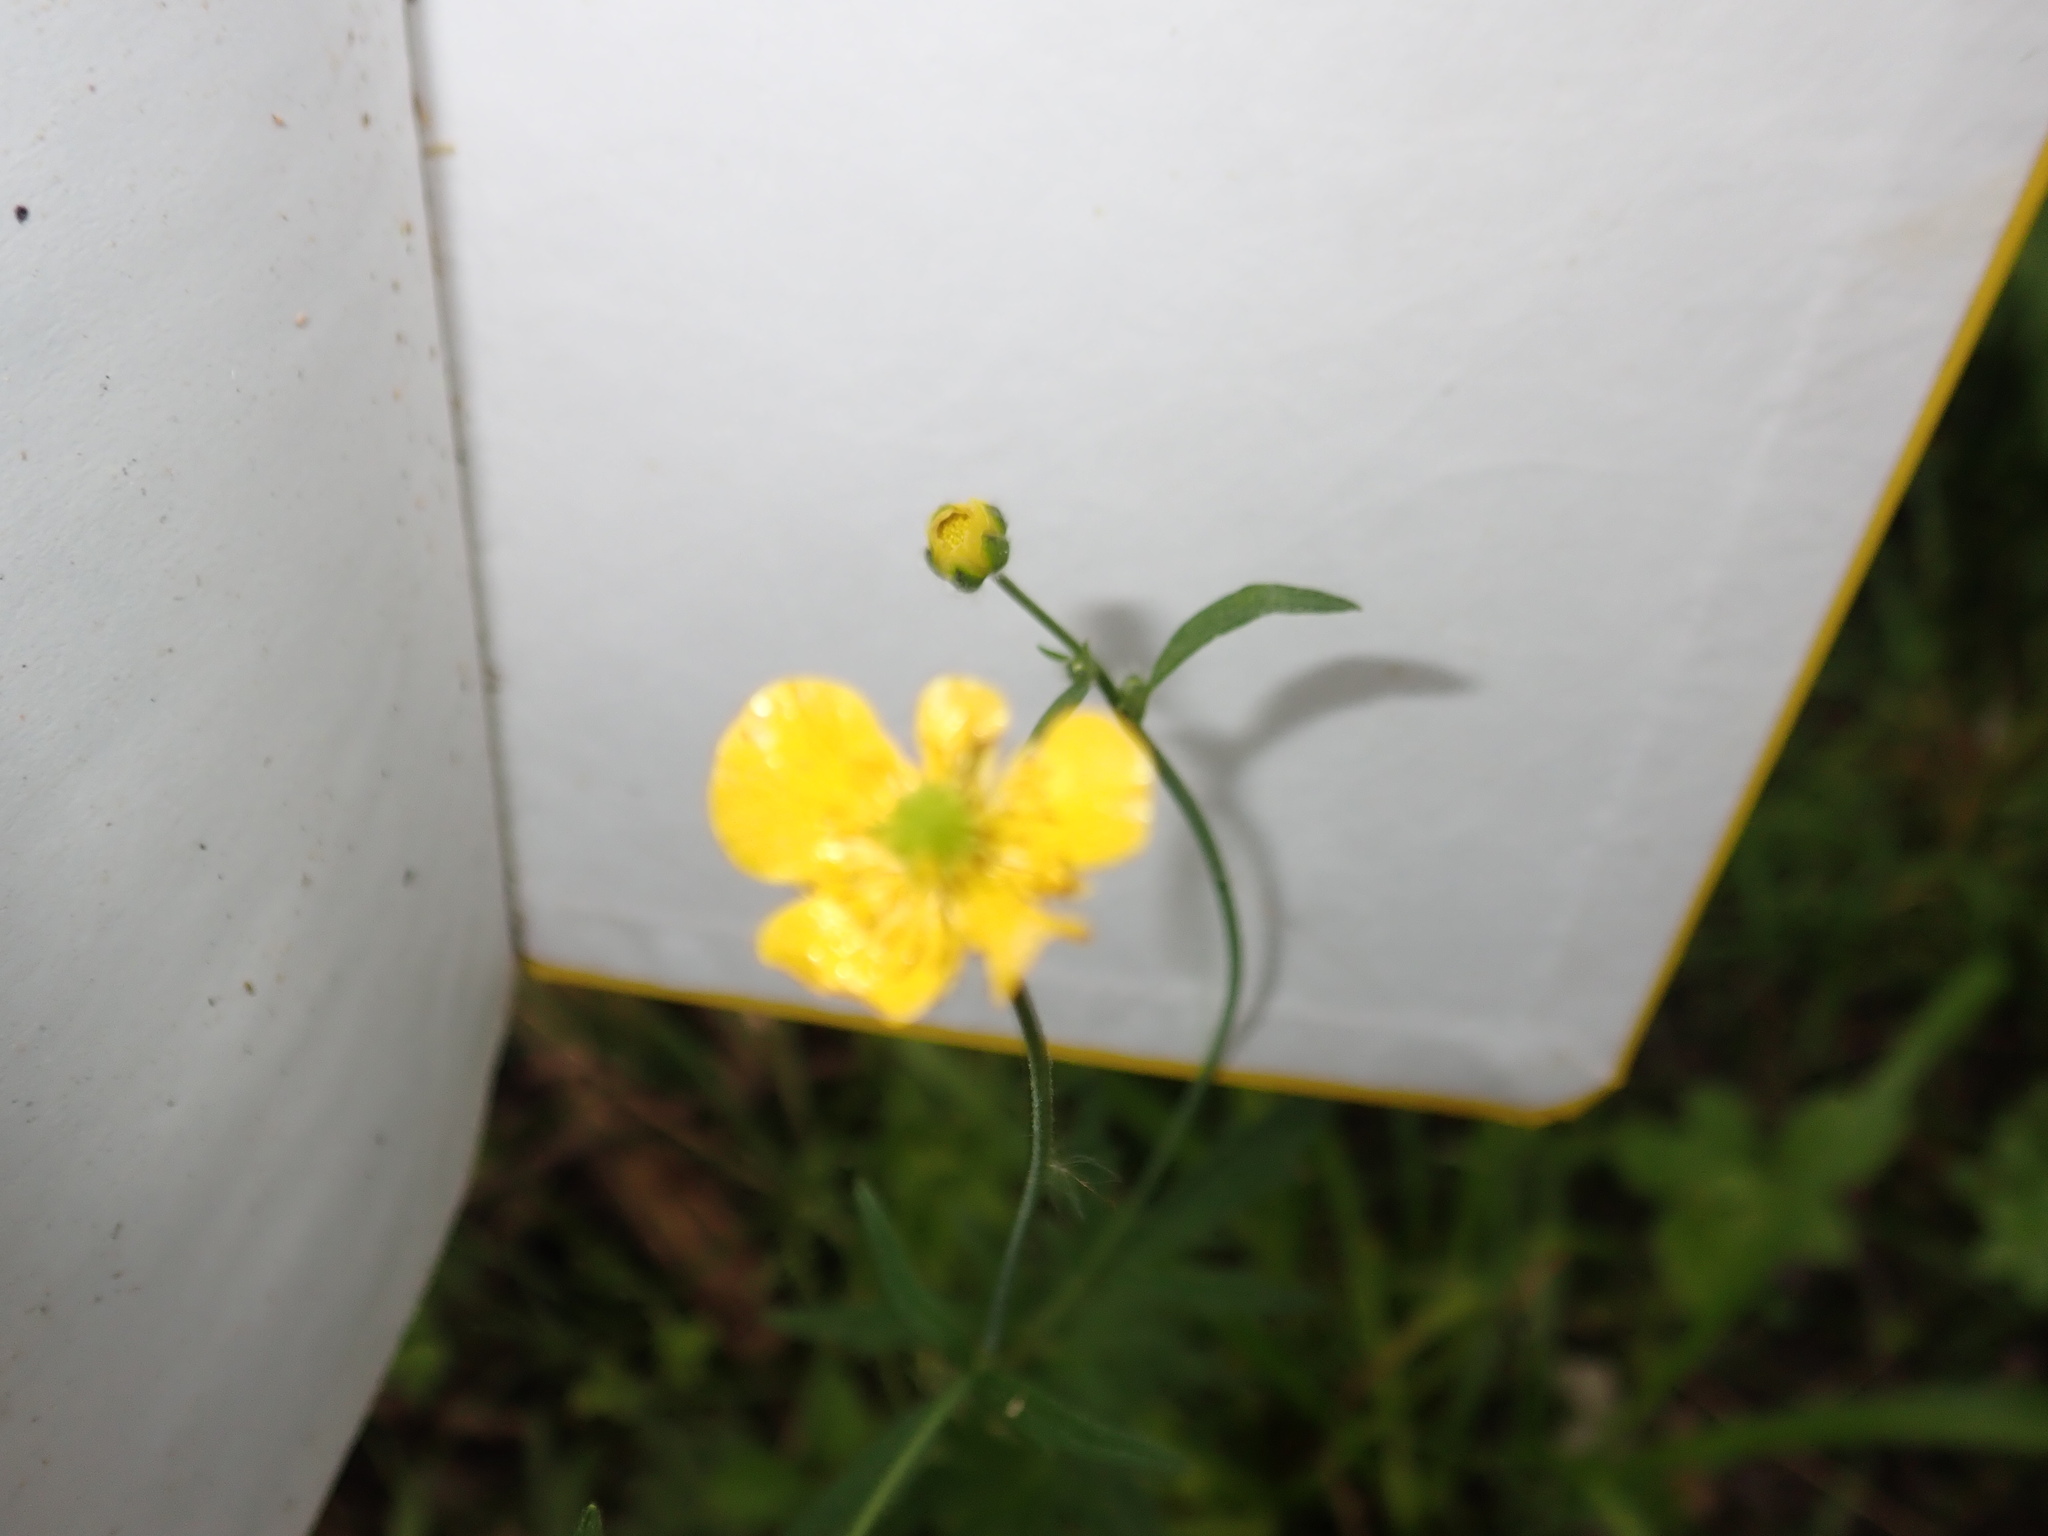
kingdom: Plantae
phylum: Tracheophyta
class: Magnoliopsida
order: Ranunculales
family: Ranunculaceae
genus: Ranunculus
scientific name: Ranunculus acris
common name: Meadow buttercup
